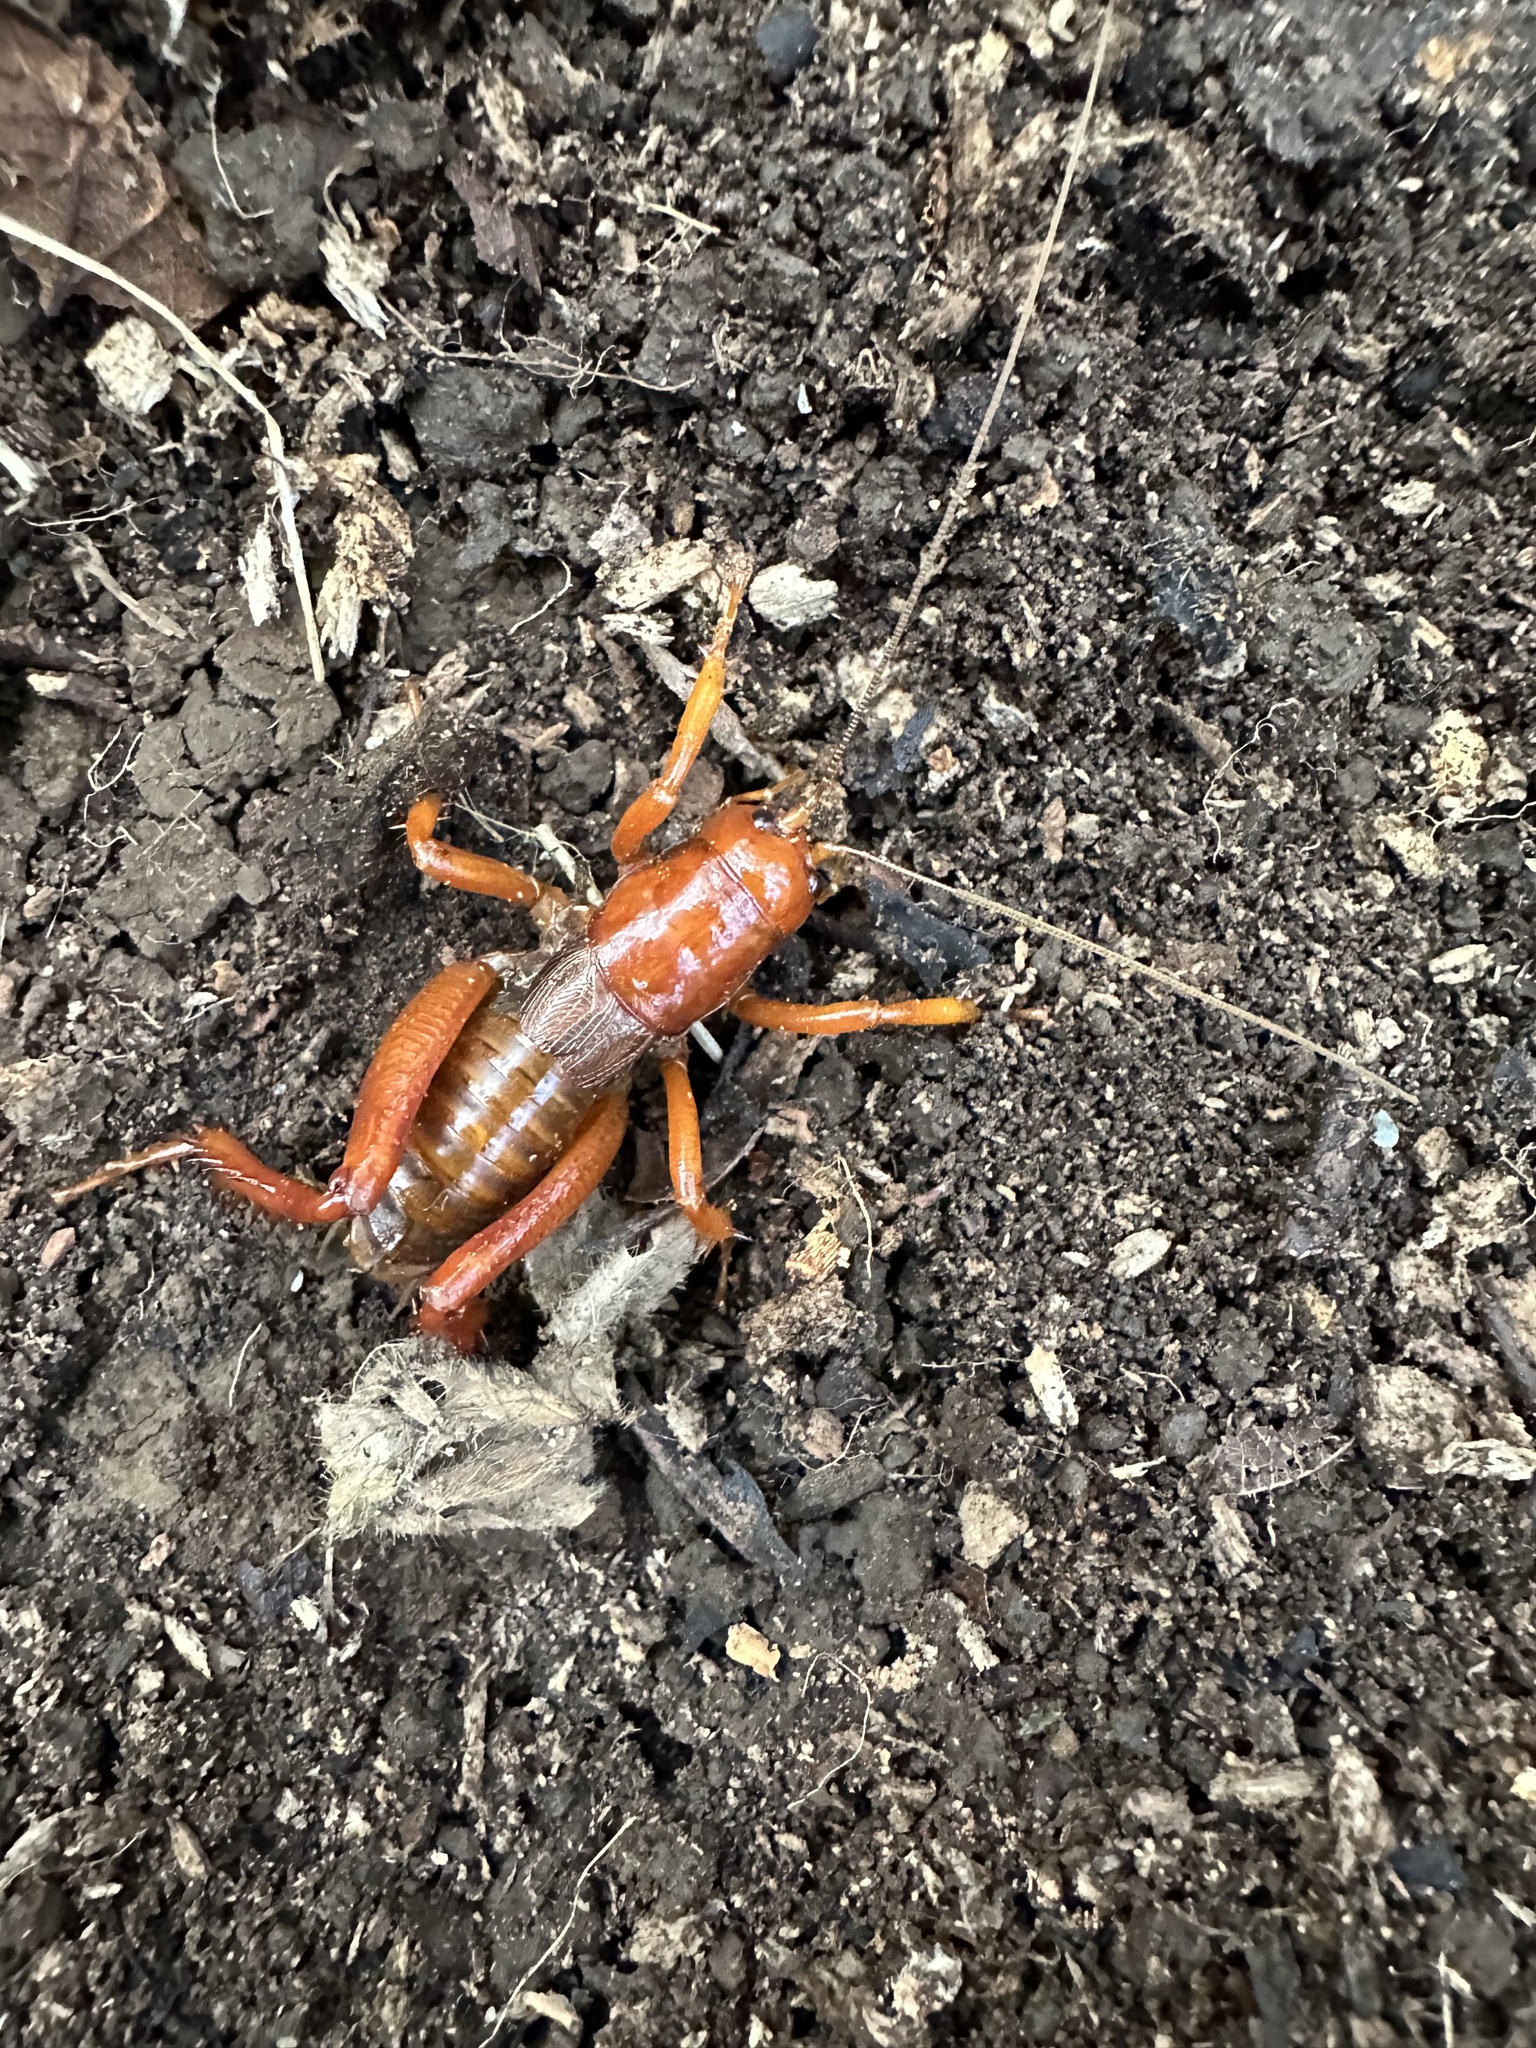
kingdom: Animalia
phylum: Arthropoda
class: Insecta
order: Orthoptera
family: Anostostomatidae
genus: Cratomelus
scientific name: Cratomelus armatus
